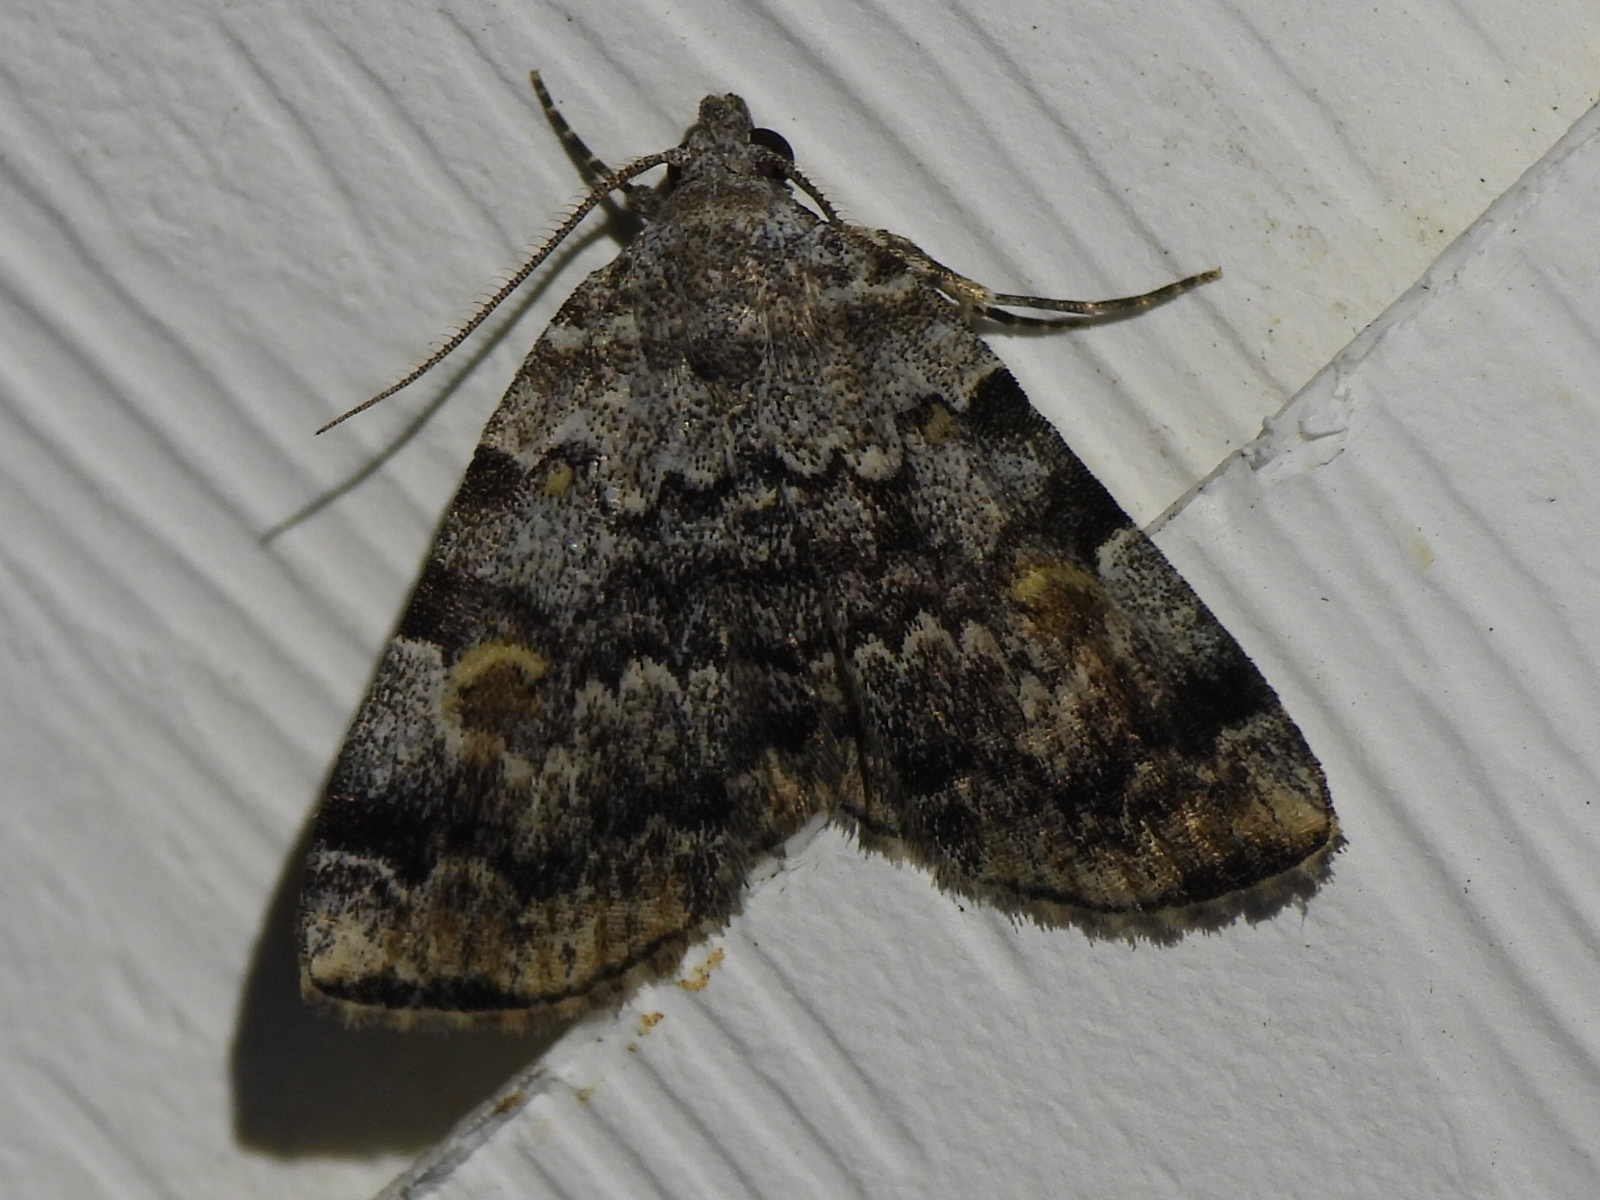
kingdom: Animalia
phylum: Arthropoda
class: Insecta
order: Lepidoptera
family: Erebidae
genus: Idia
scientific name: Idia americalis
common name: American idia moth
